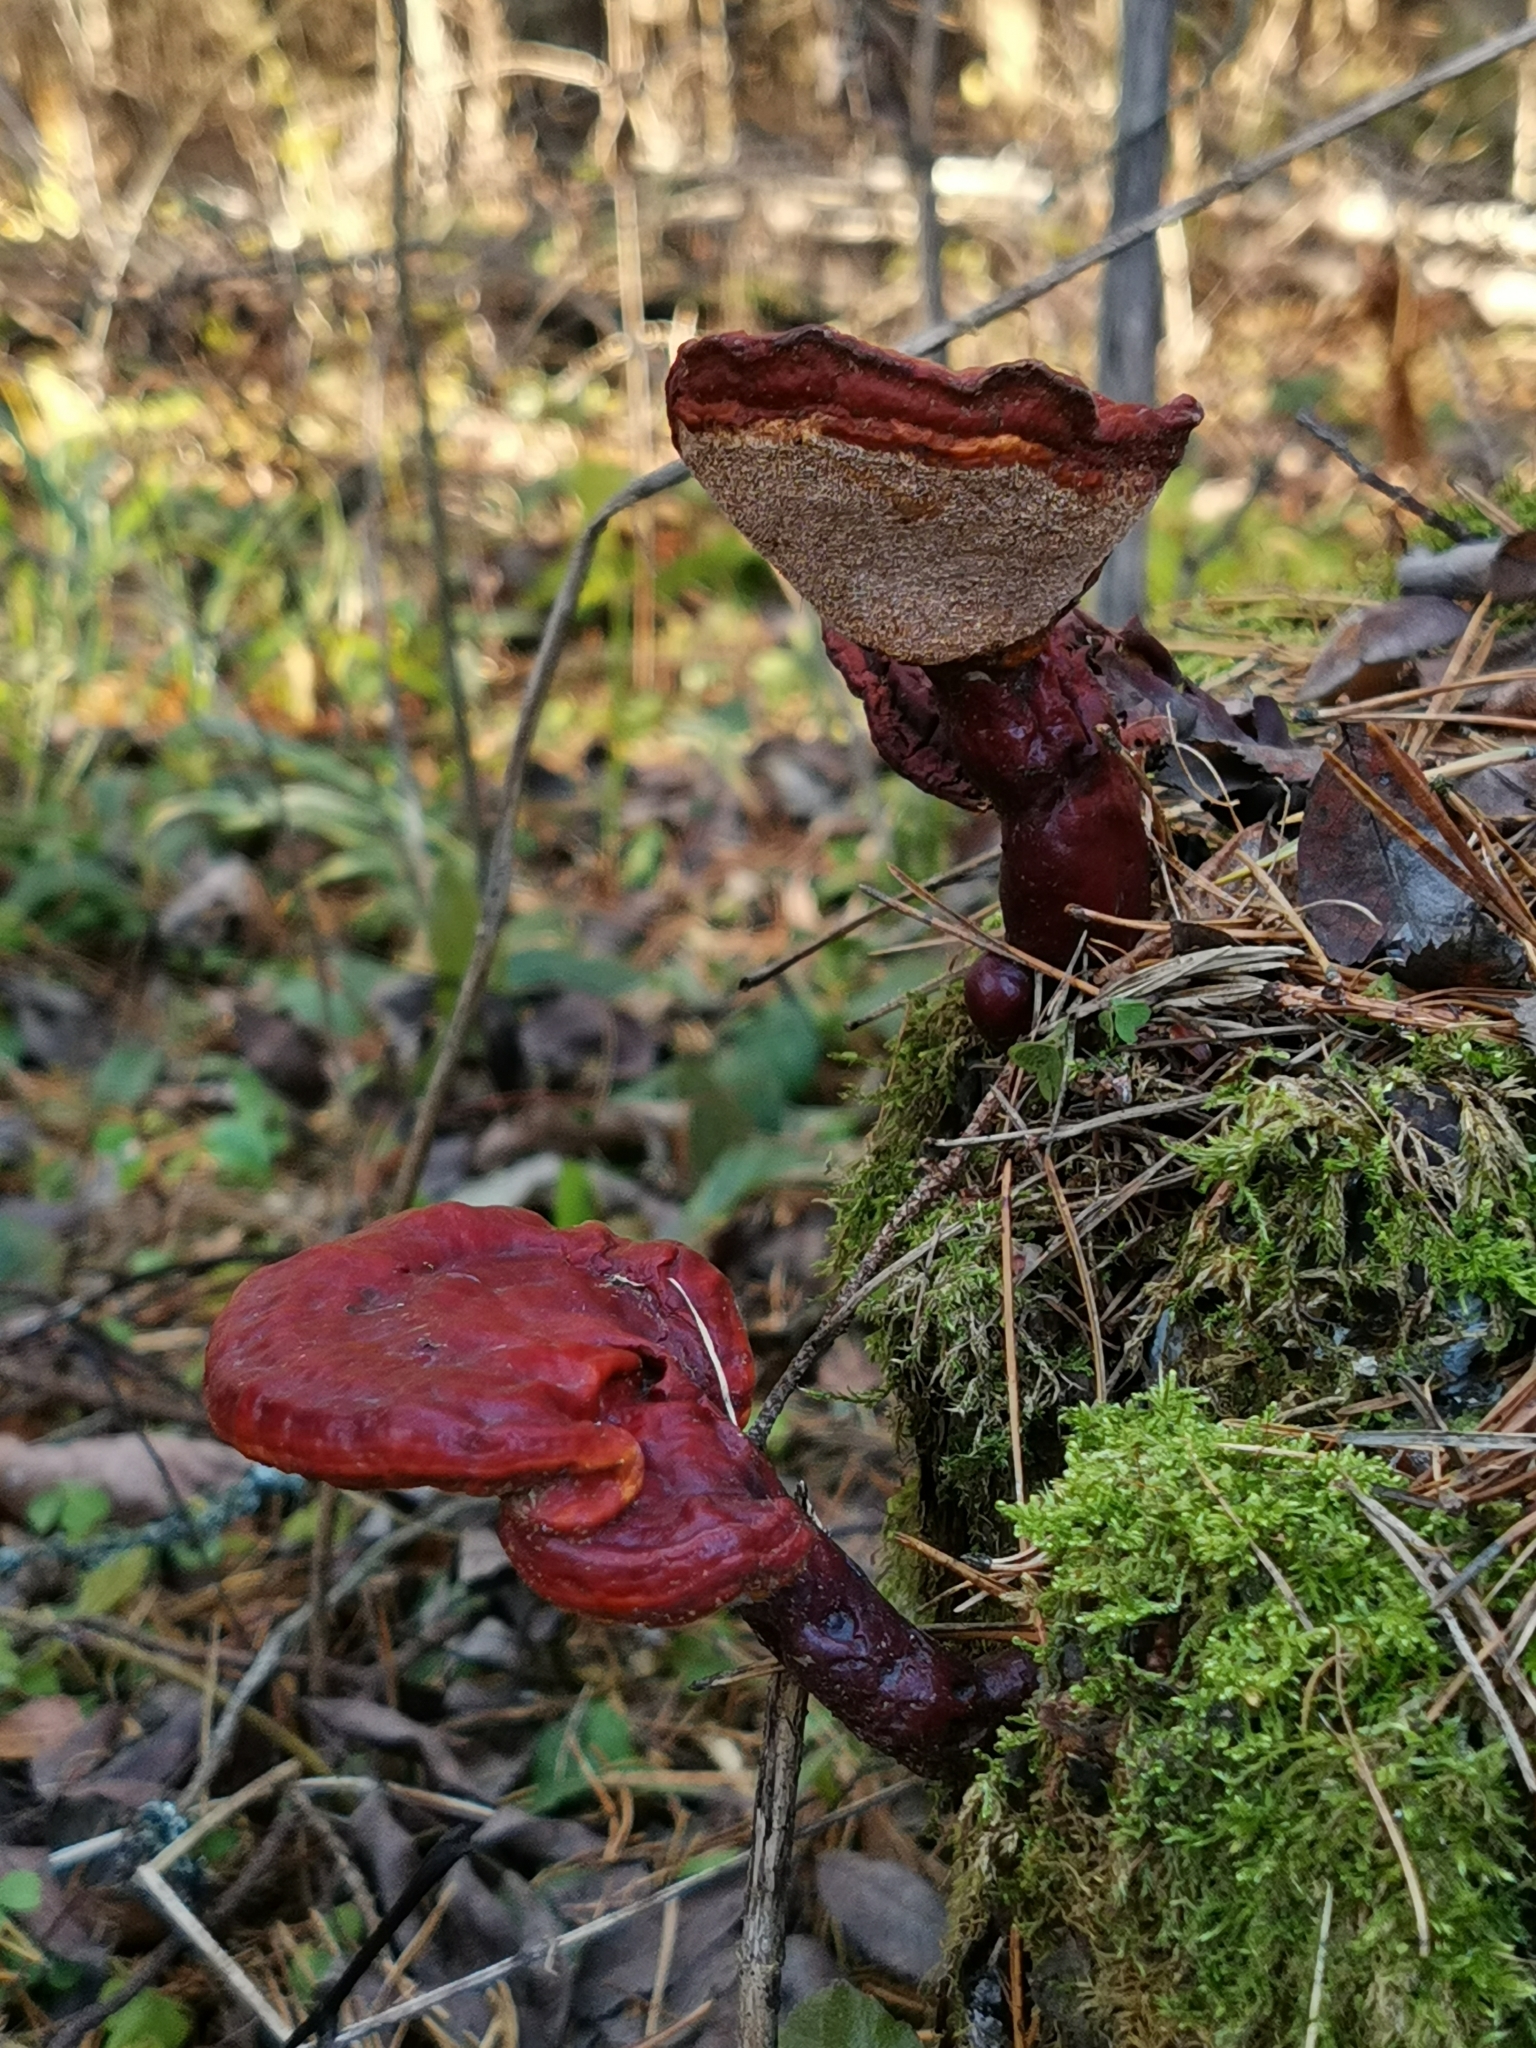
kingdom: Fungi
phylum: Basidiomycota
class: Agaricomycetes
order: Polyporales
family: Polyporaceae
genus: Ganoderma
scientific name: Ganoderma lucidum
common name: Lacquered bracket
